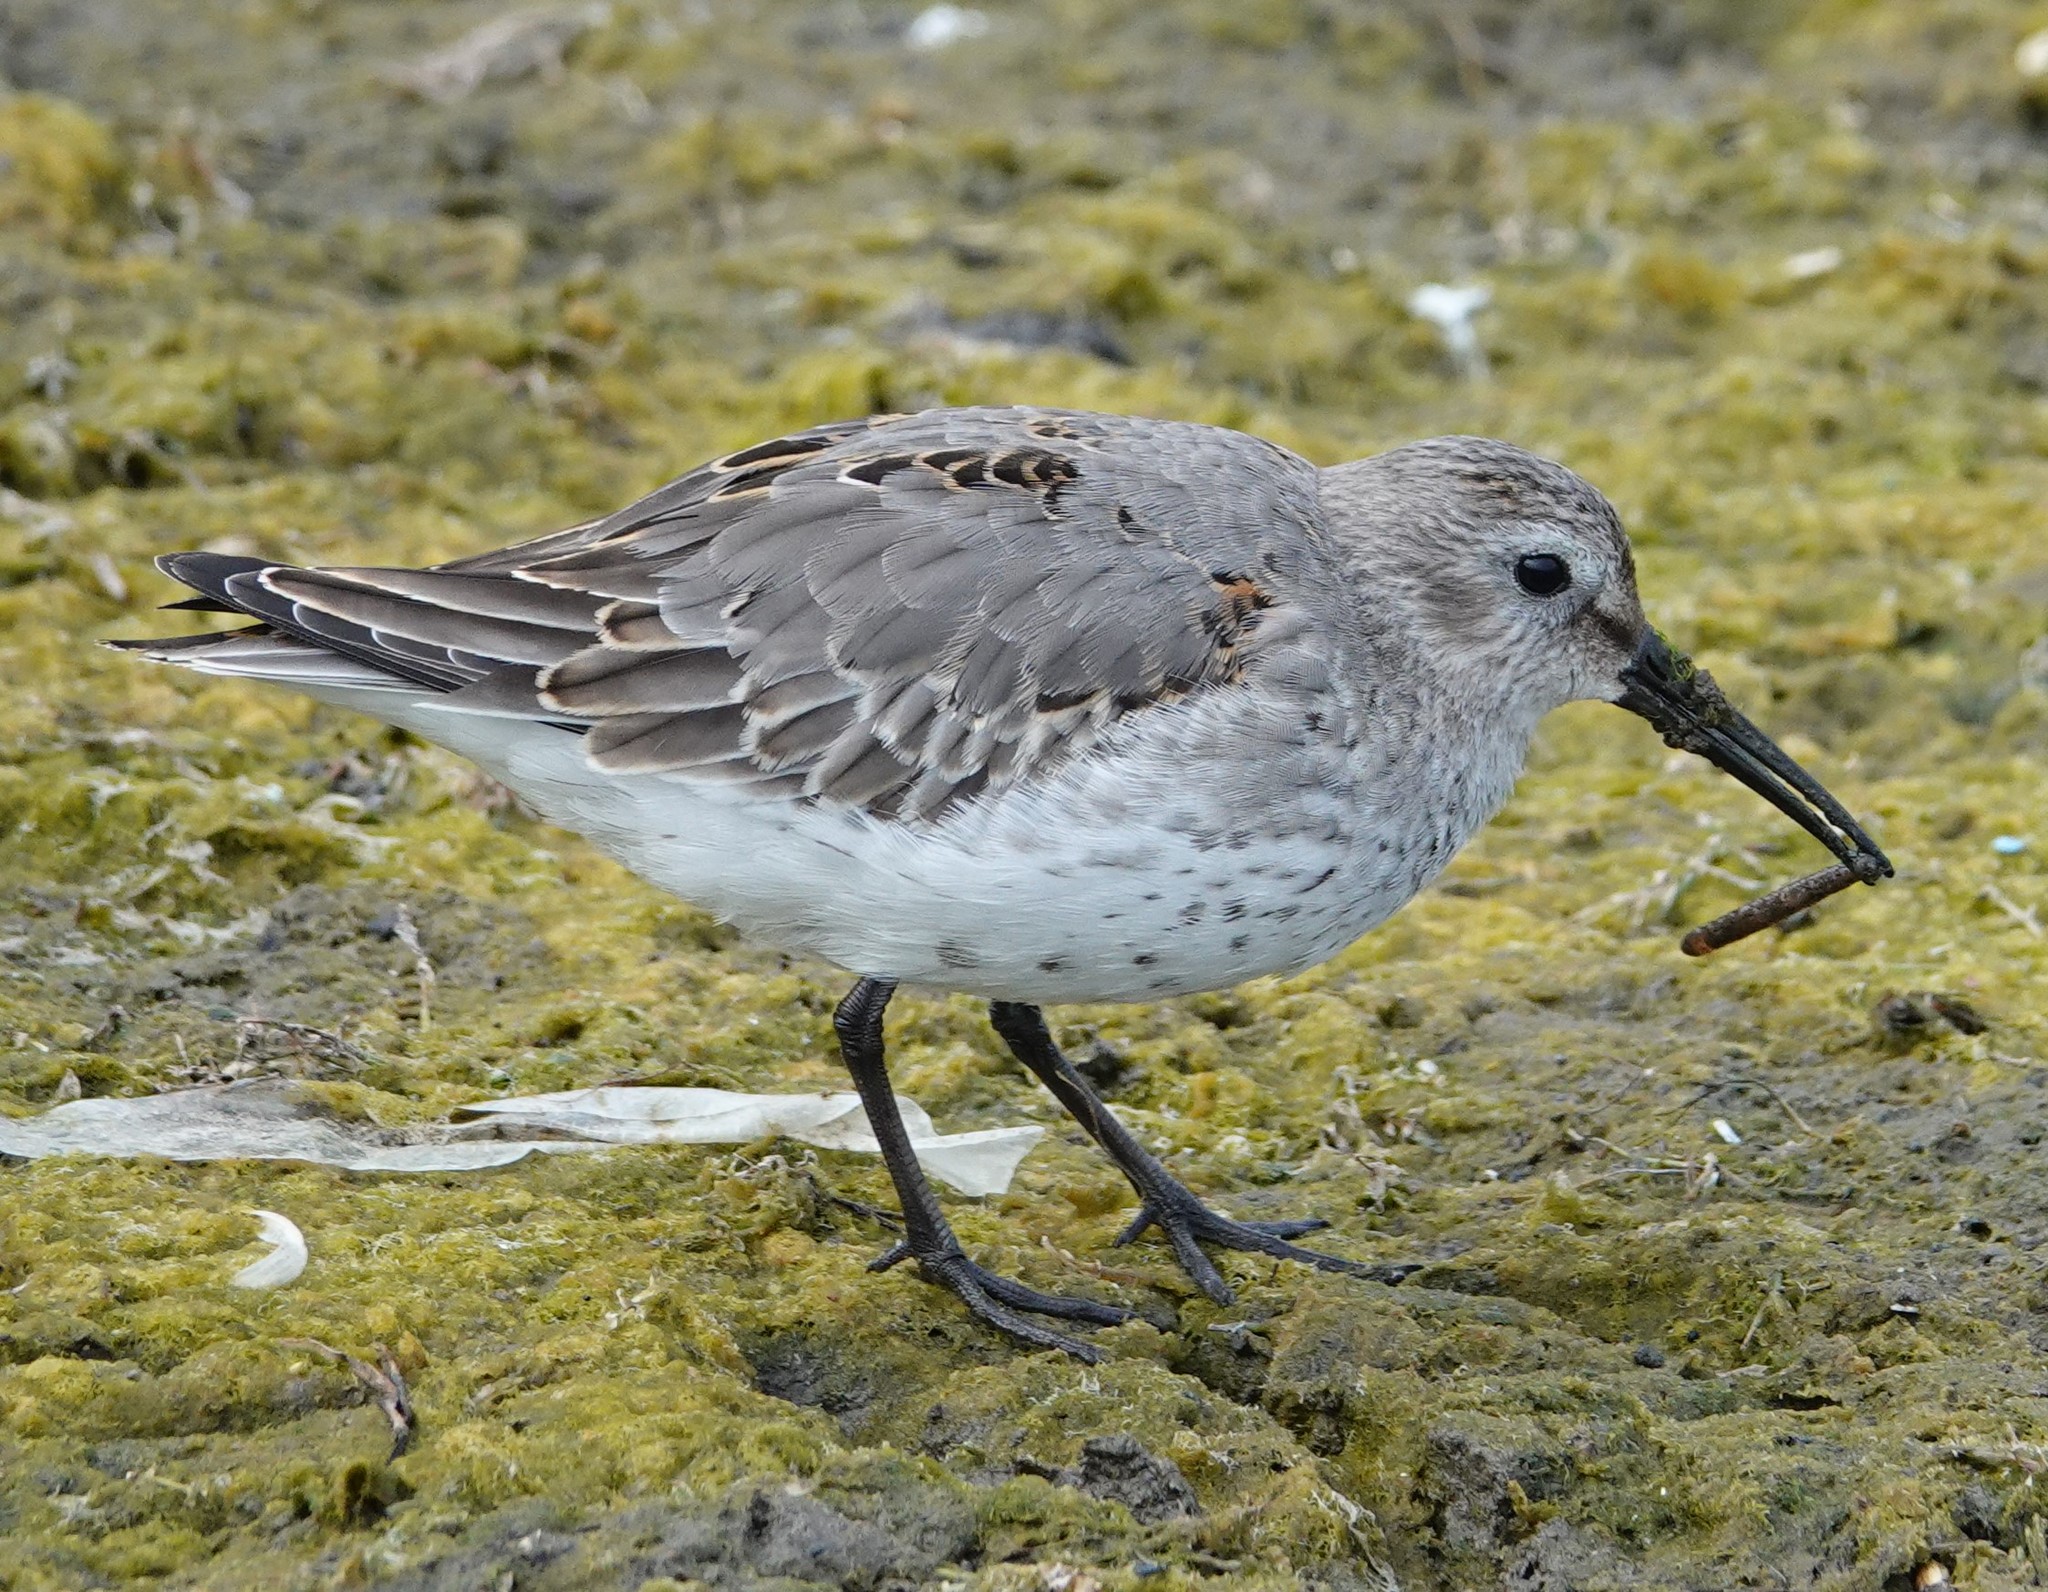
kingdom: Animalia
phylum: Chordata
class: Aves
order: Charadriiformes
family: Scolopacidae
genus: Calidris
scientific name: Calidris alpina
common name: Dunlin
